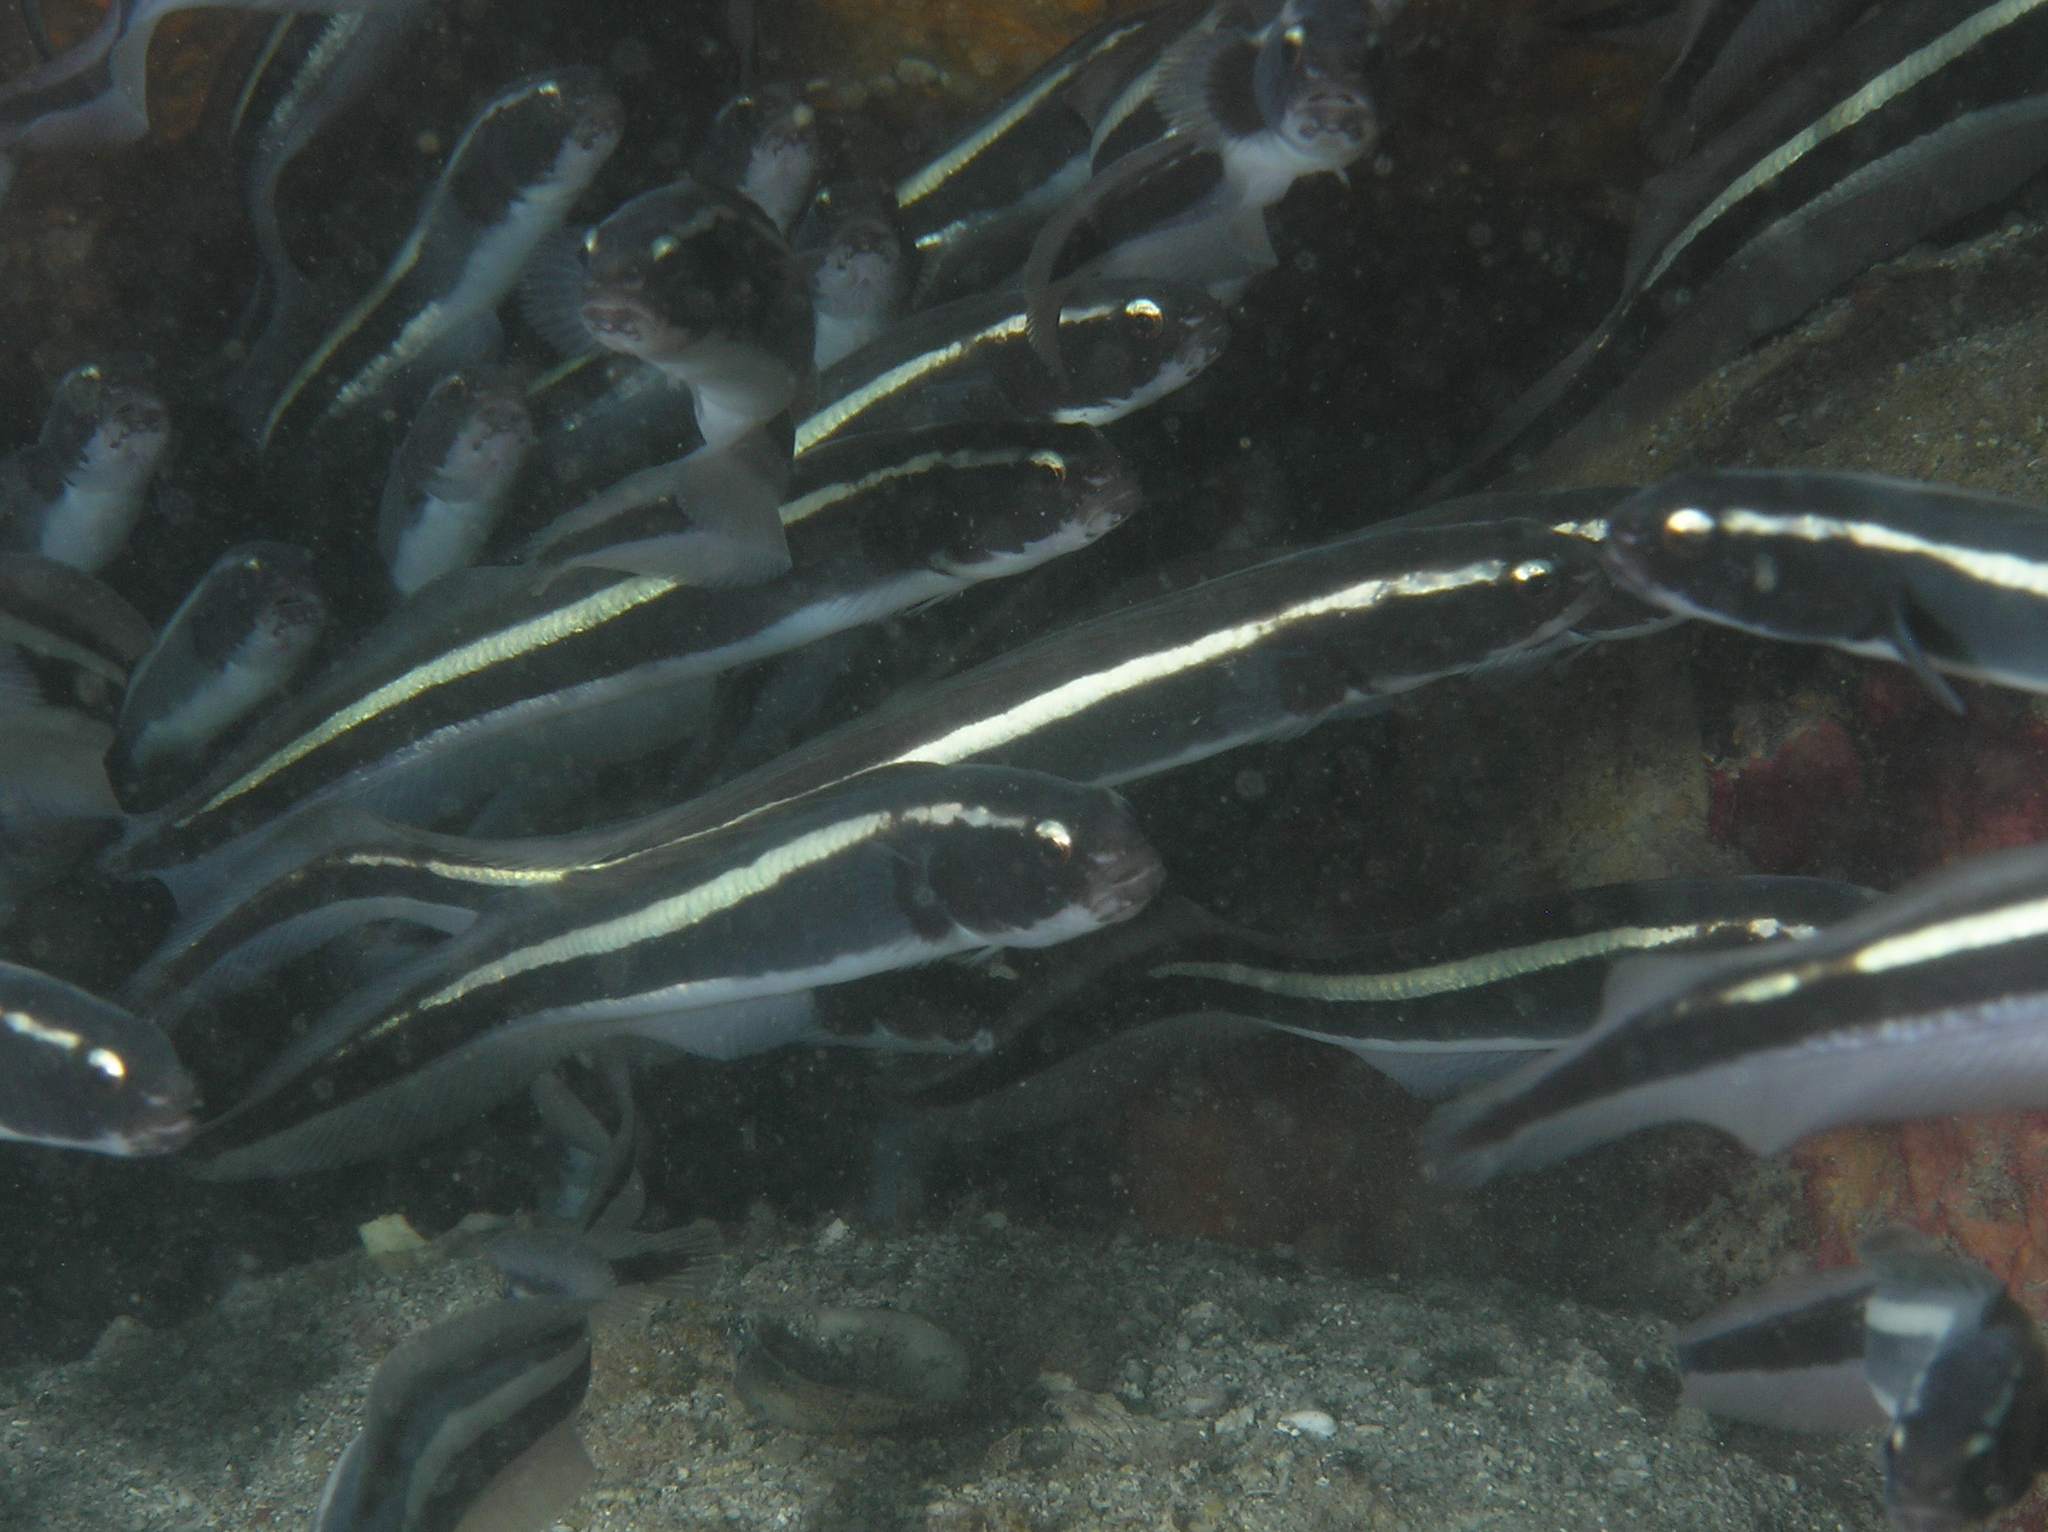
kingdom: Animalia
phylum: Chordata
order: Perciformes
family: Pholidichthyidae
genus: Pholidichthys
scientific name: Pholidichthys leucotaenia
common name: Convict blenny
